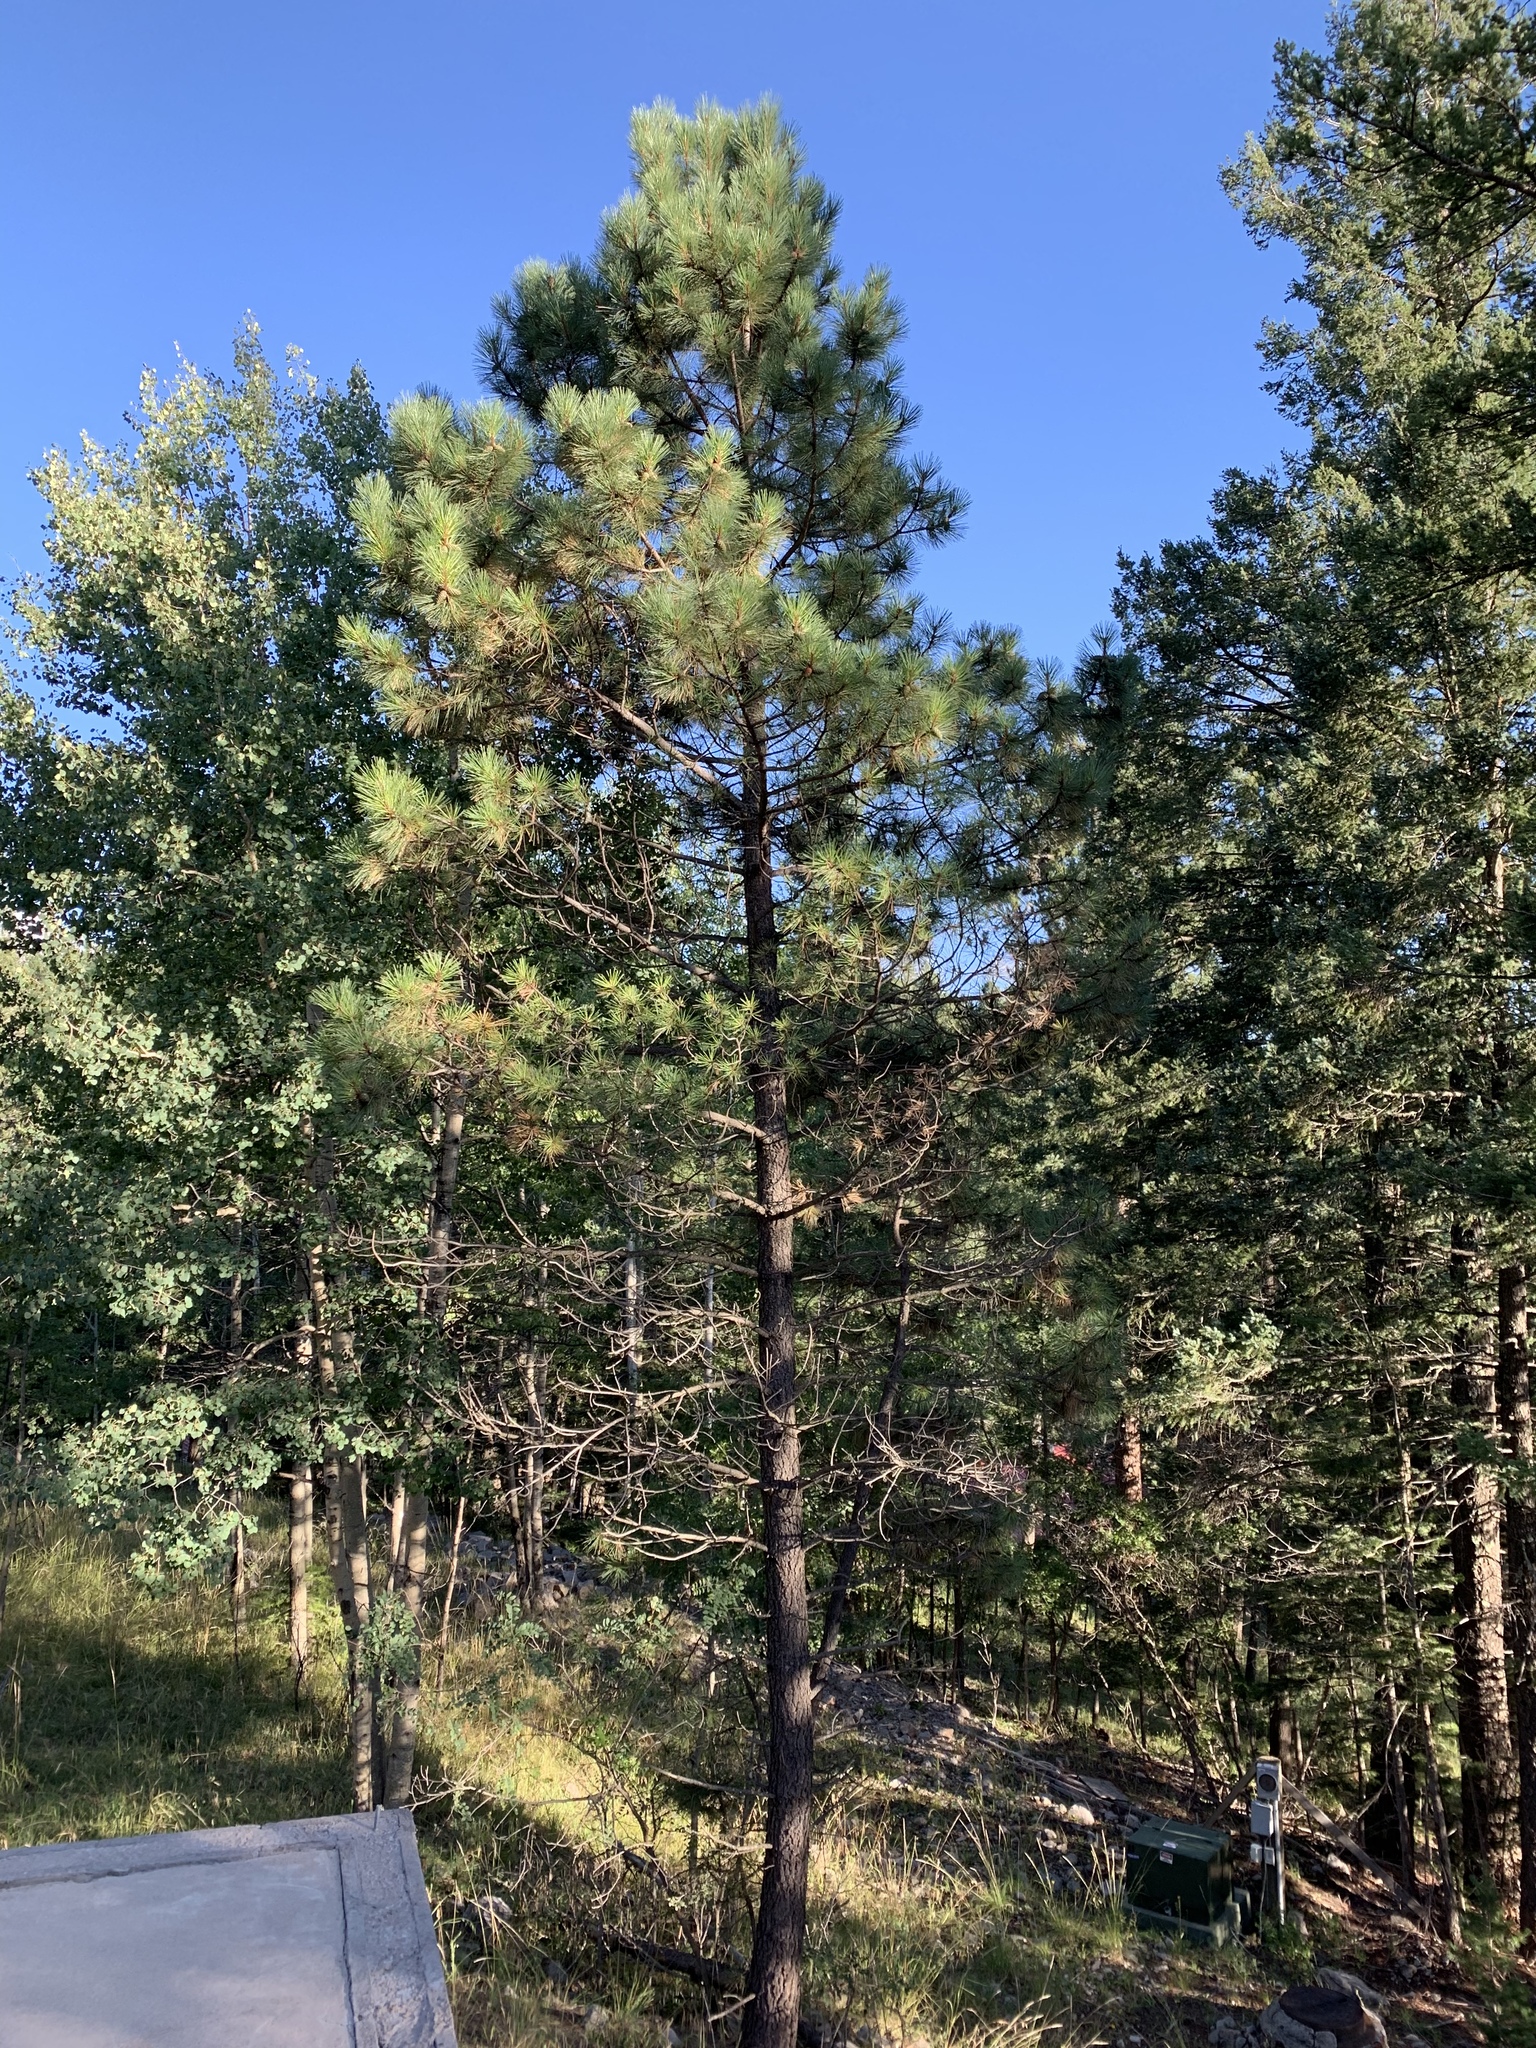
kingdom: Plantae
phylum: Tracheophyta
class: Pinopsida
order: Pinales
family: Pinaceae
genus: Pinus
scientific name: Pinus ponderosa
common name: Western yellow-pine
